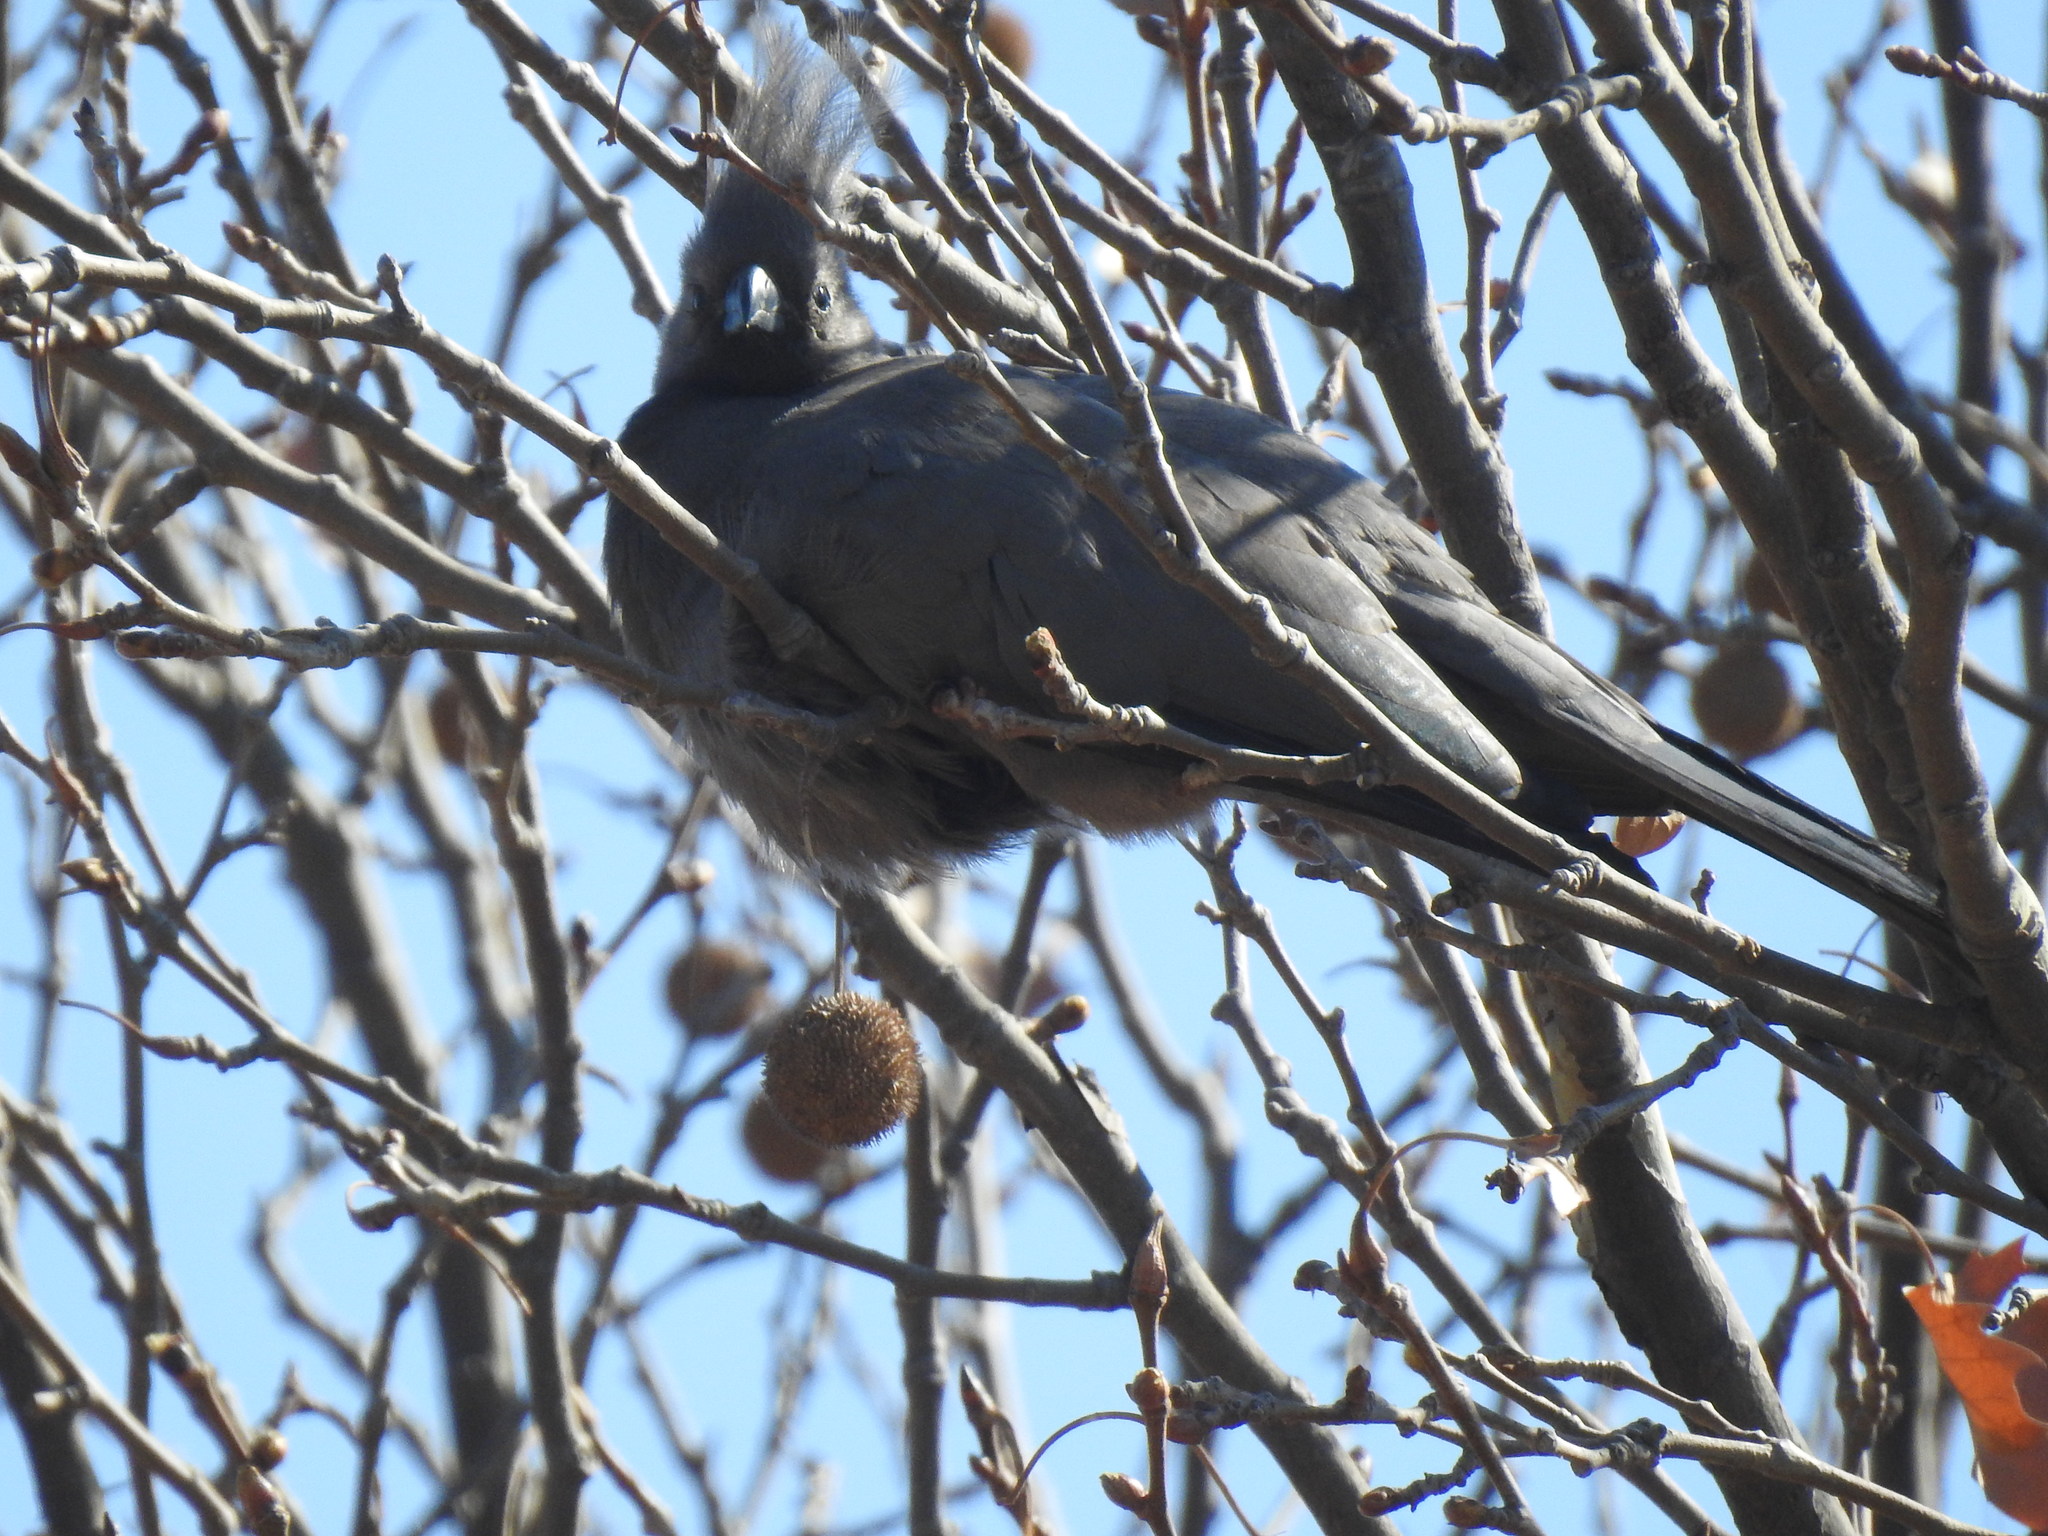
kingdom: Animalia
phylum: Chordata
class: Aves
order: Musophagiformes
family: Musophagidae
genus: Corythaixoides
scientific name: Corythaixoides concolor
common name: Grey go-away-bird
